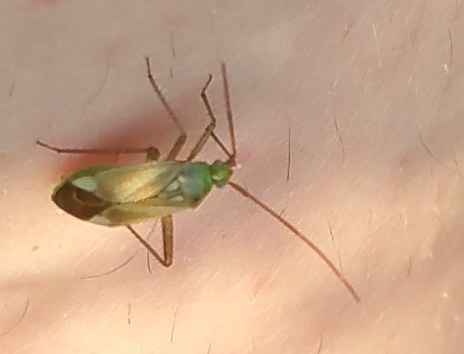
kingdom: Animalia
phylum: Arthropoda
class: Insecta
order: Hemiptera
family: Miridae
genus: Adelphocoris
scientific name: Adelphocoris lineolatus
